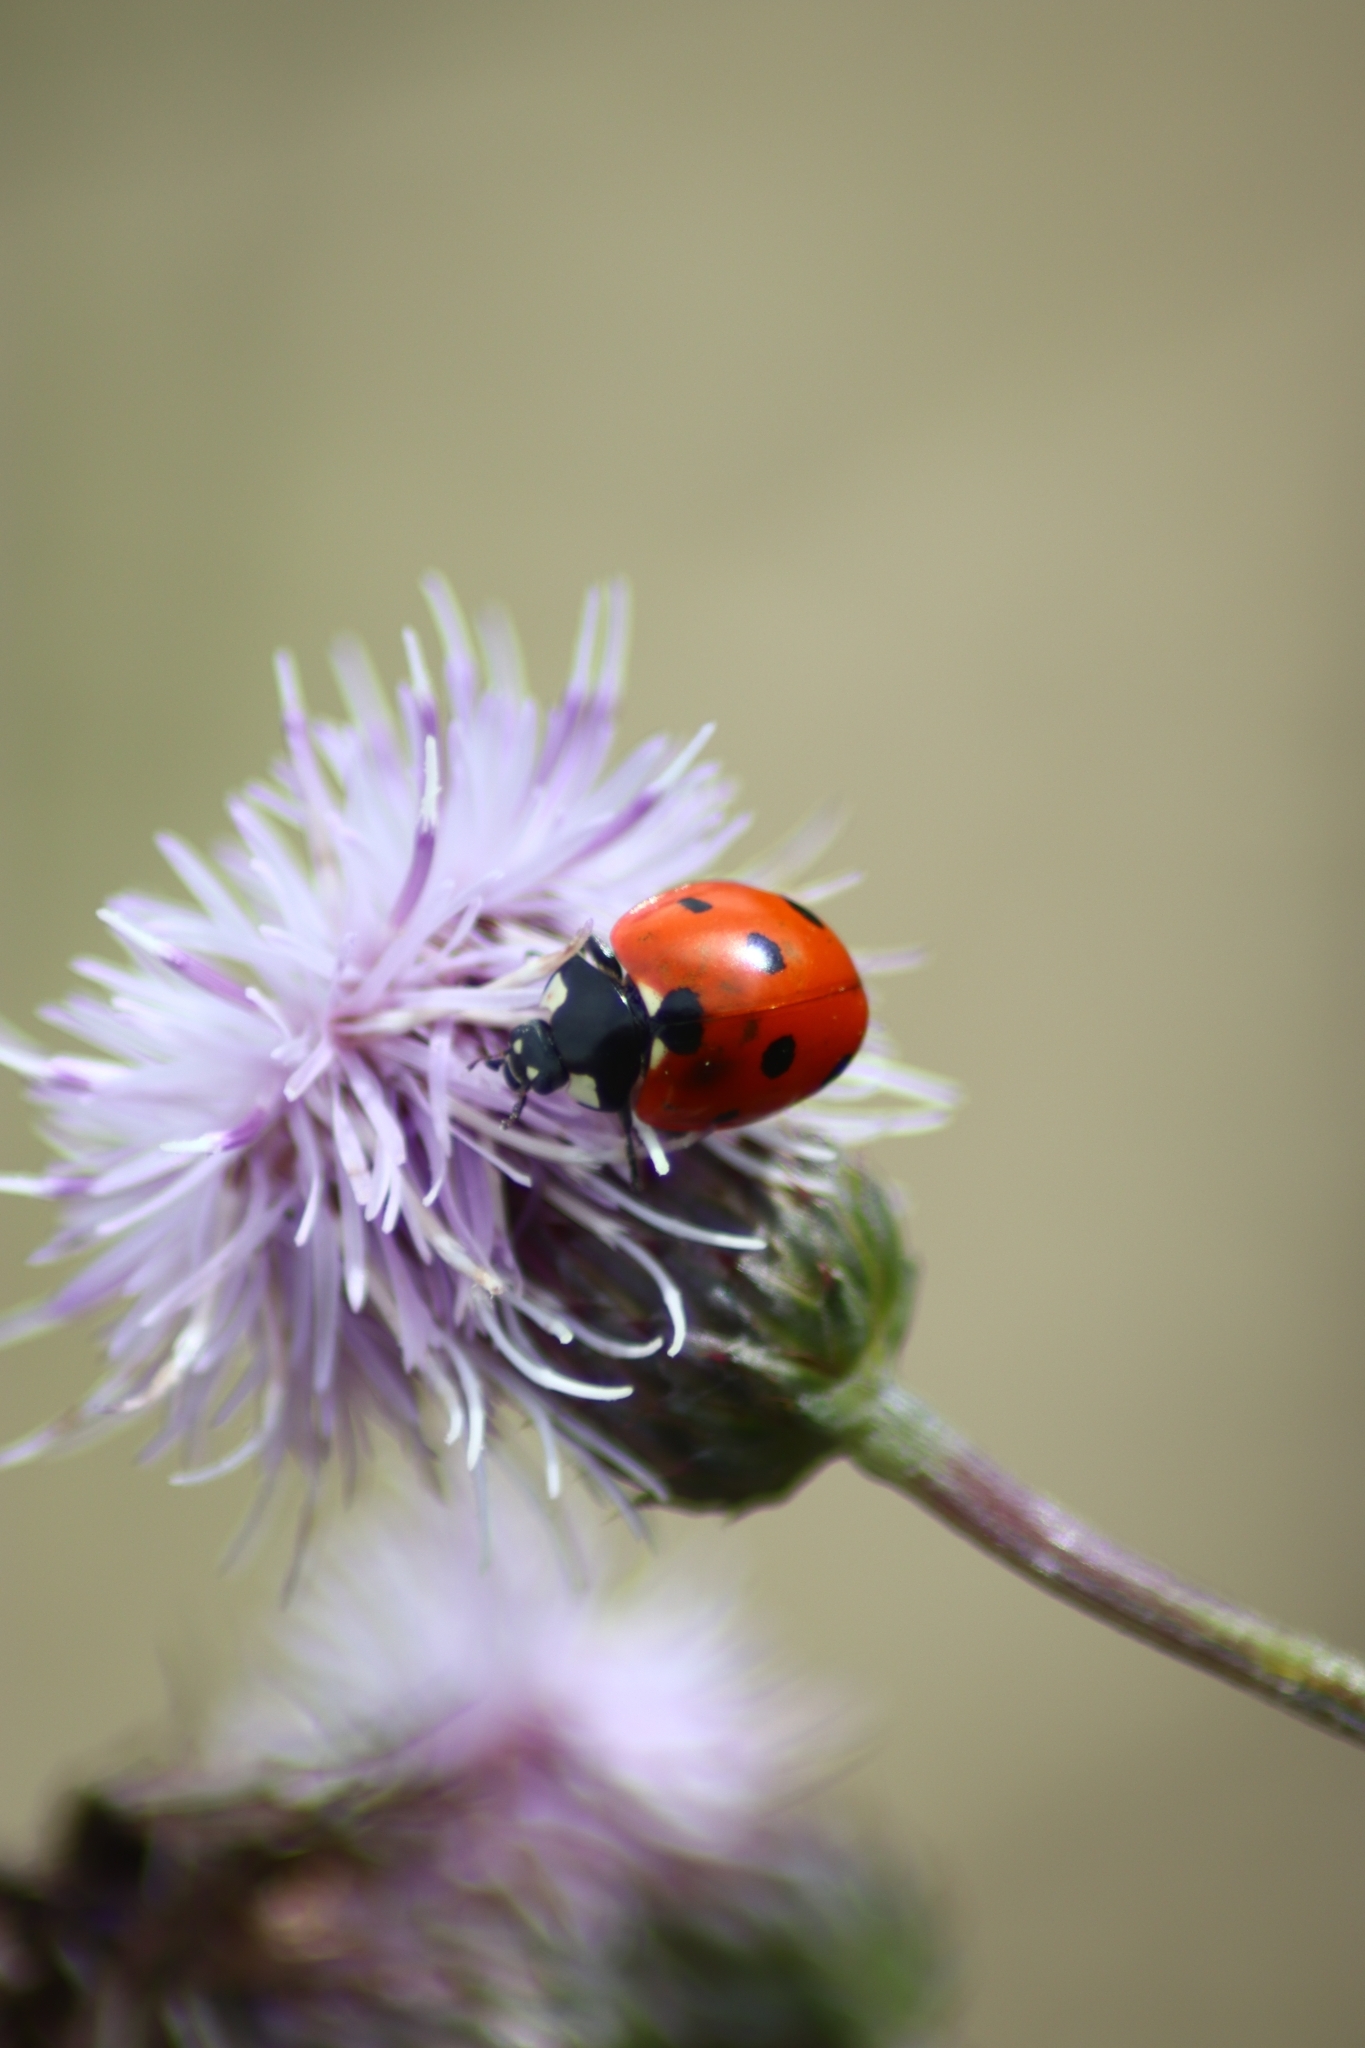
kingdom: Animalia
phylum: Arthropoda
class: Insecta
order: Coleoptera
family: Coccinellidae
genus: Coccinella
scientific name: Coccinella septempunctata
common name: Sevenspotted lady beetle
